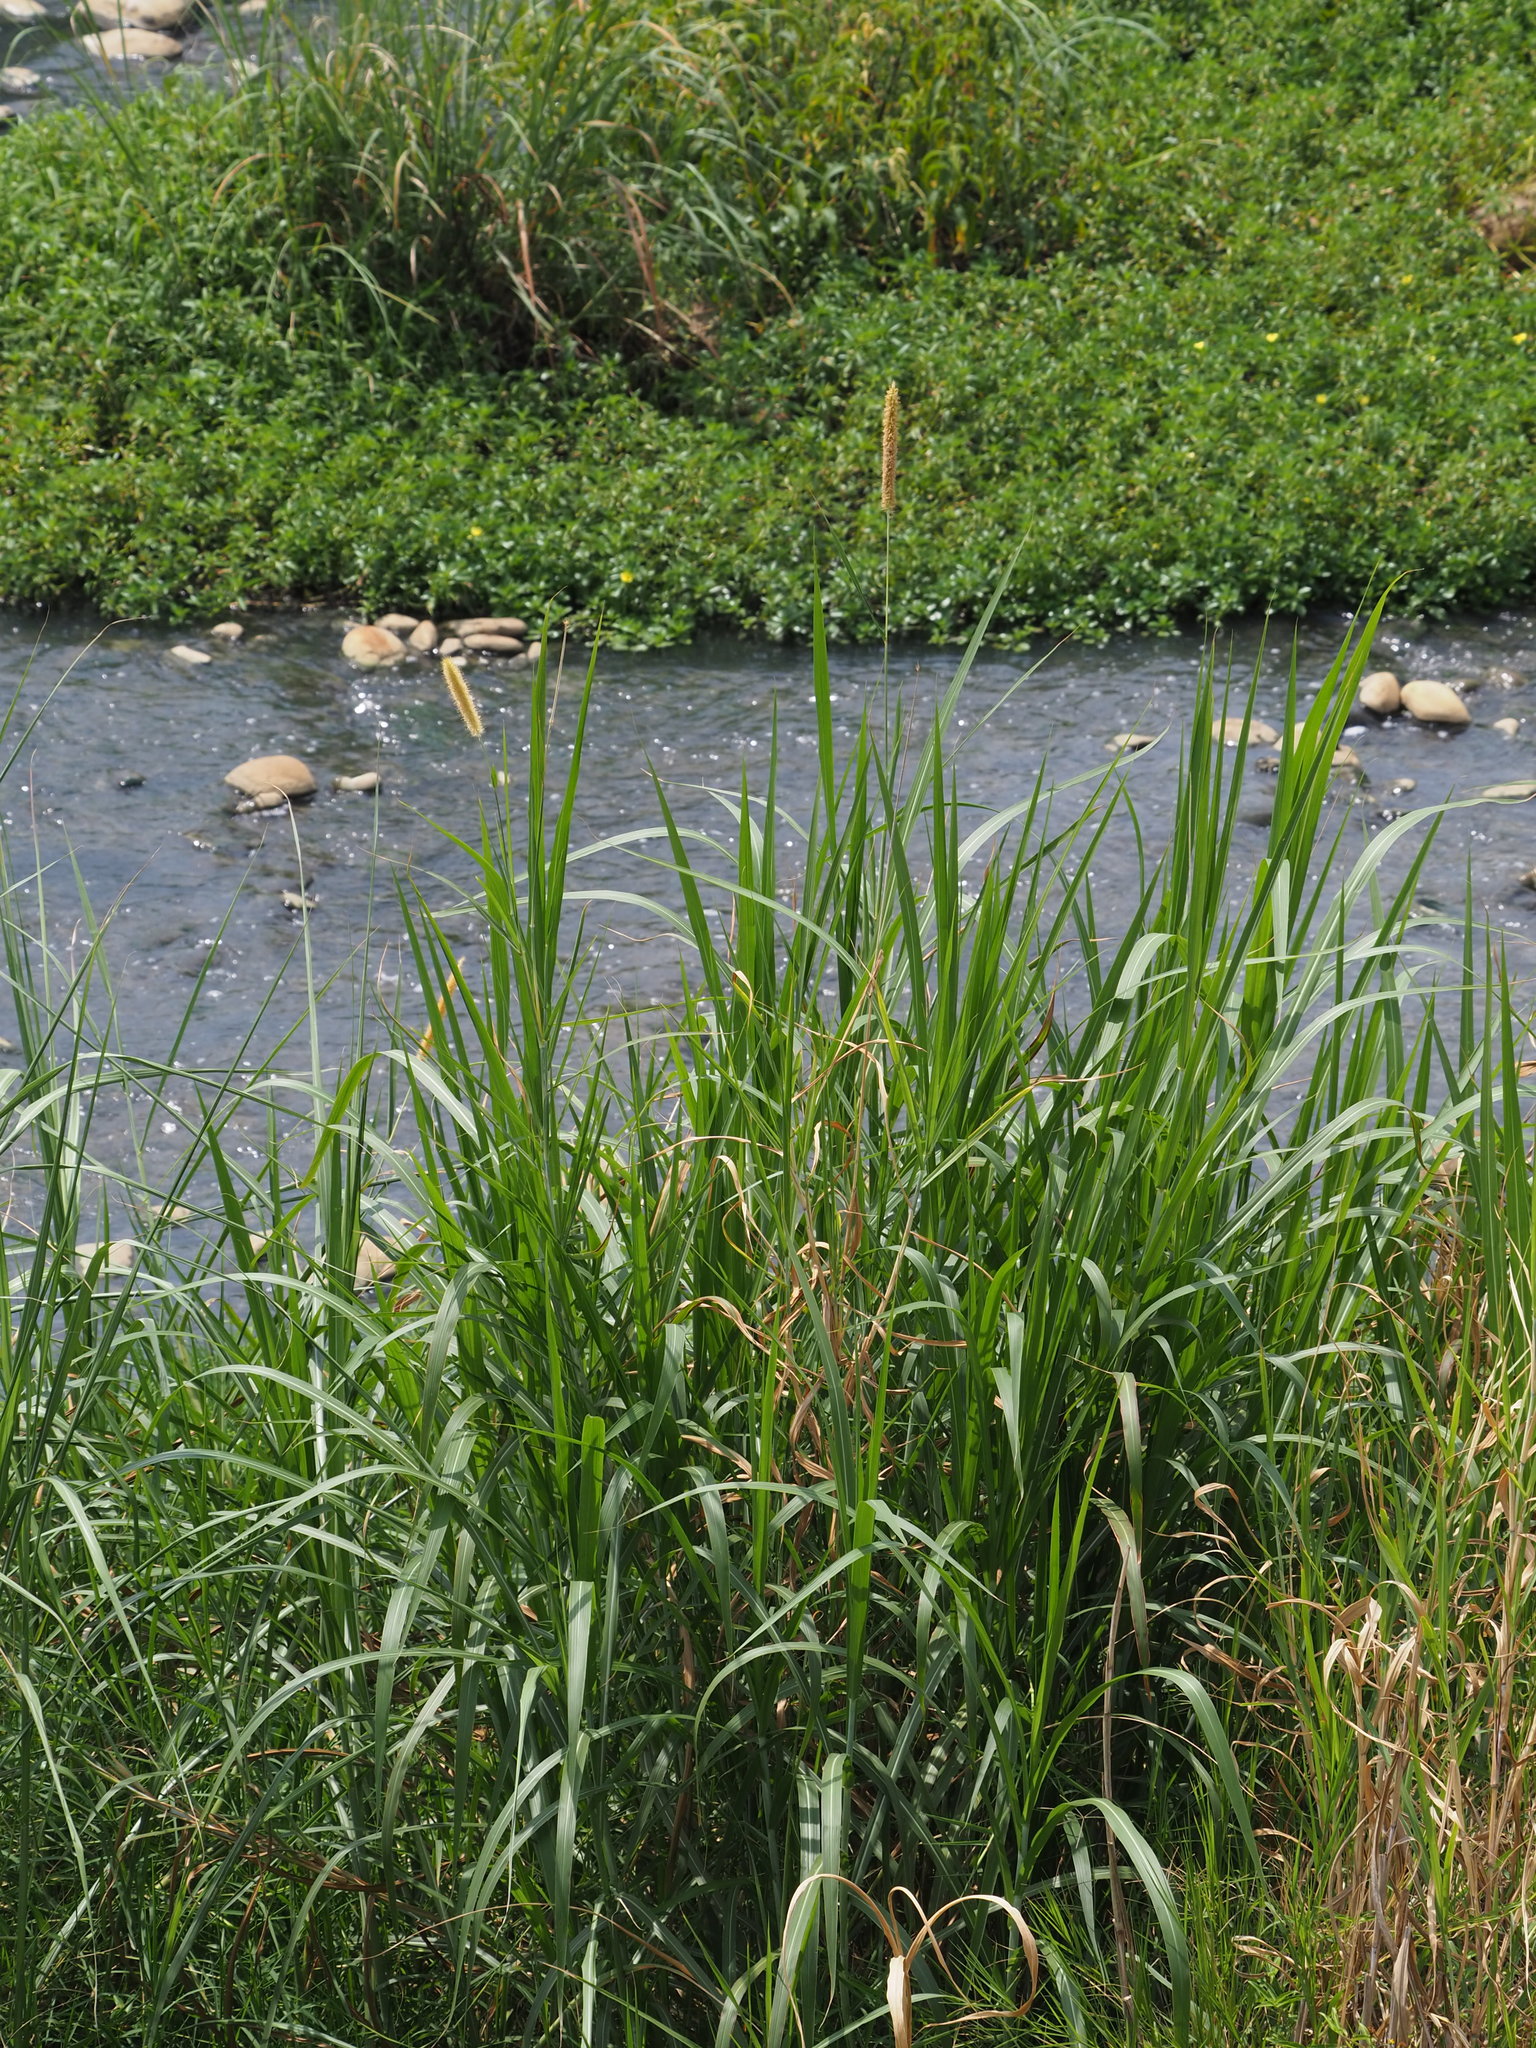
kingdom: Plantae
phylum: Tracheophyta
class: Liliopsida
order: Poales
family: Poaceae
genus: Cenchrus
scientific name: Cenchrus purpureus
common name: Elephant grass
